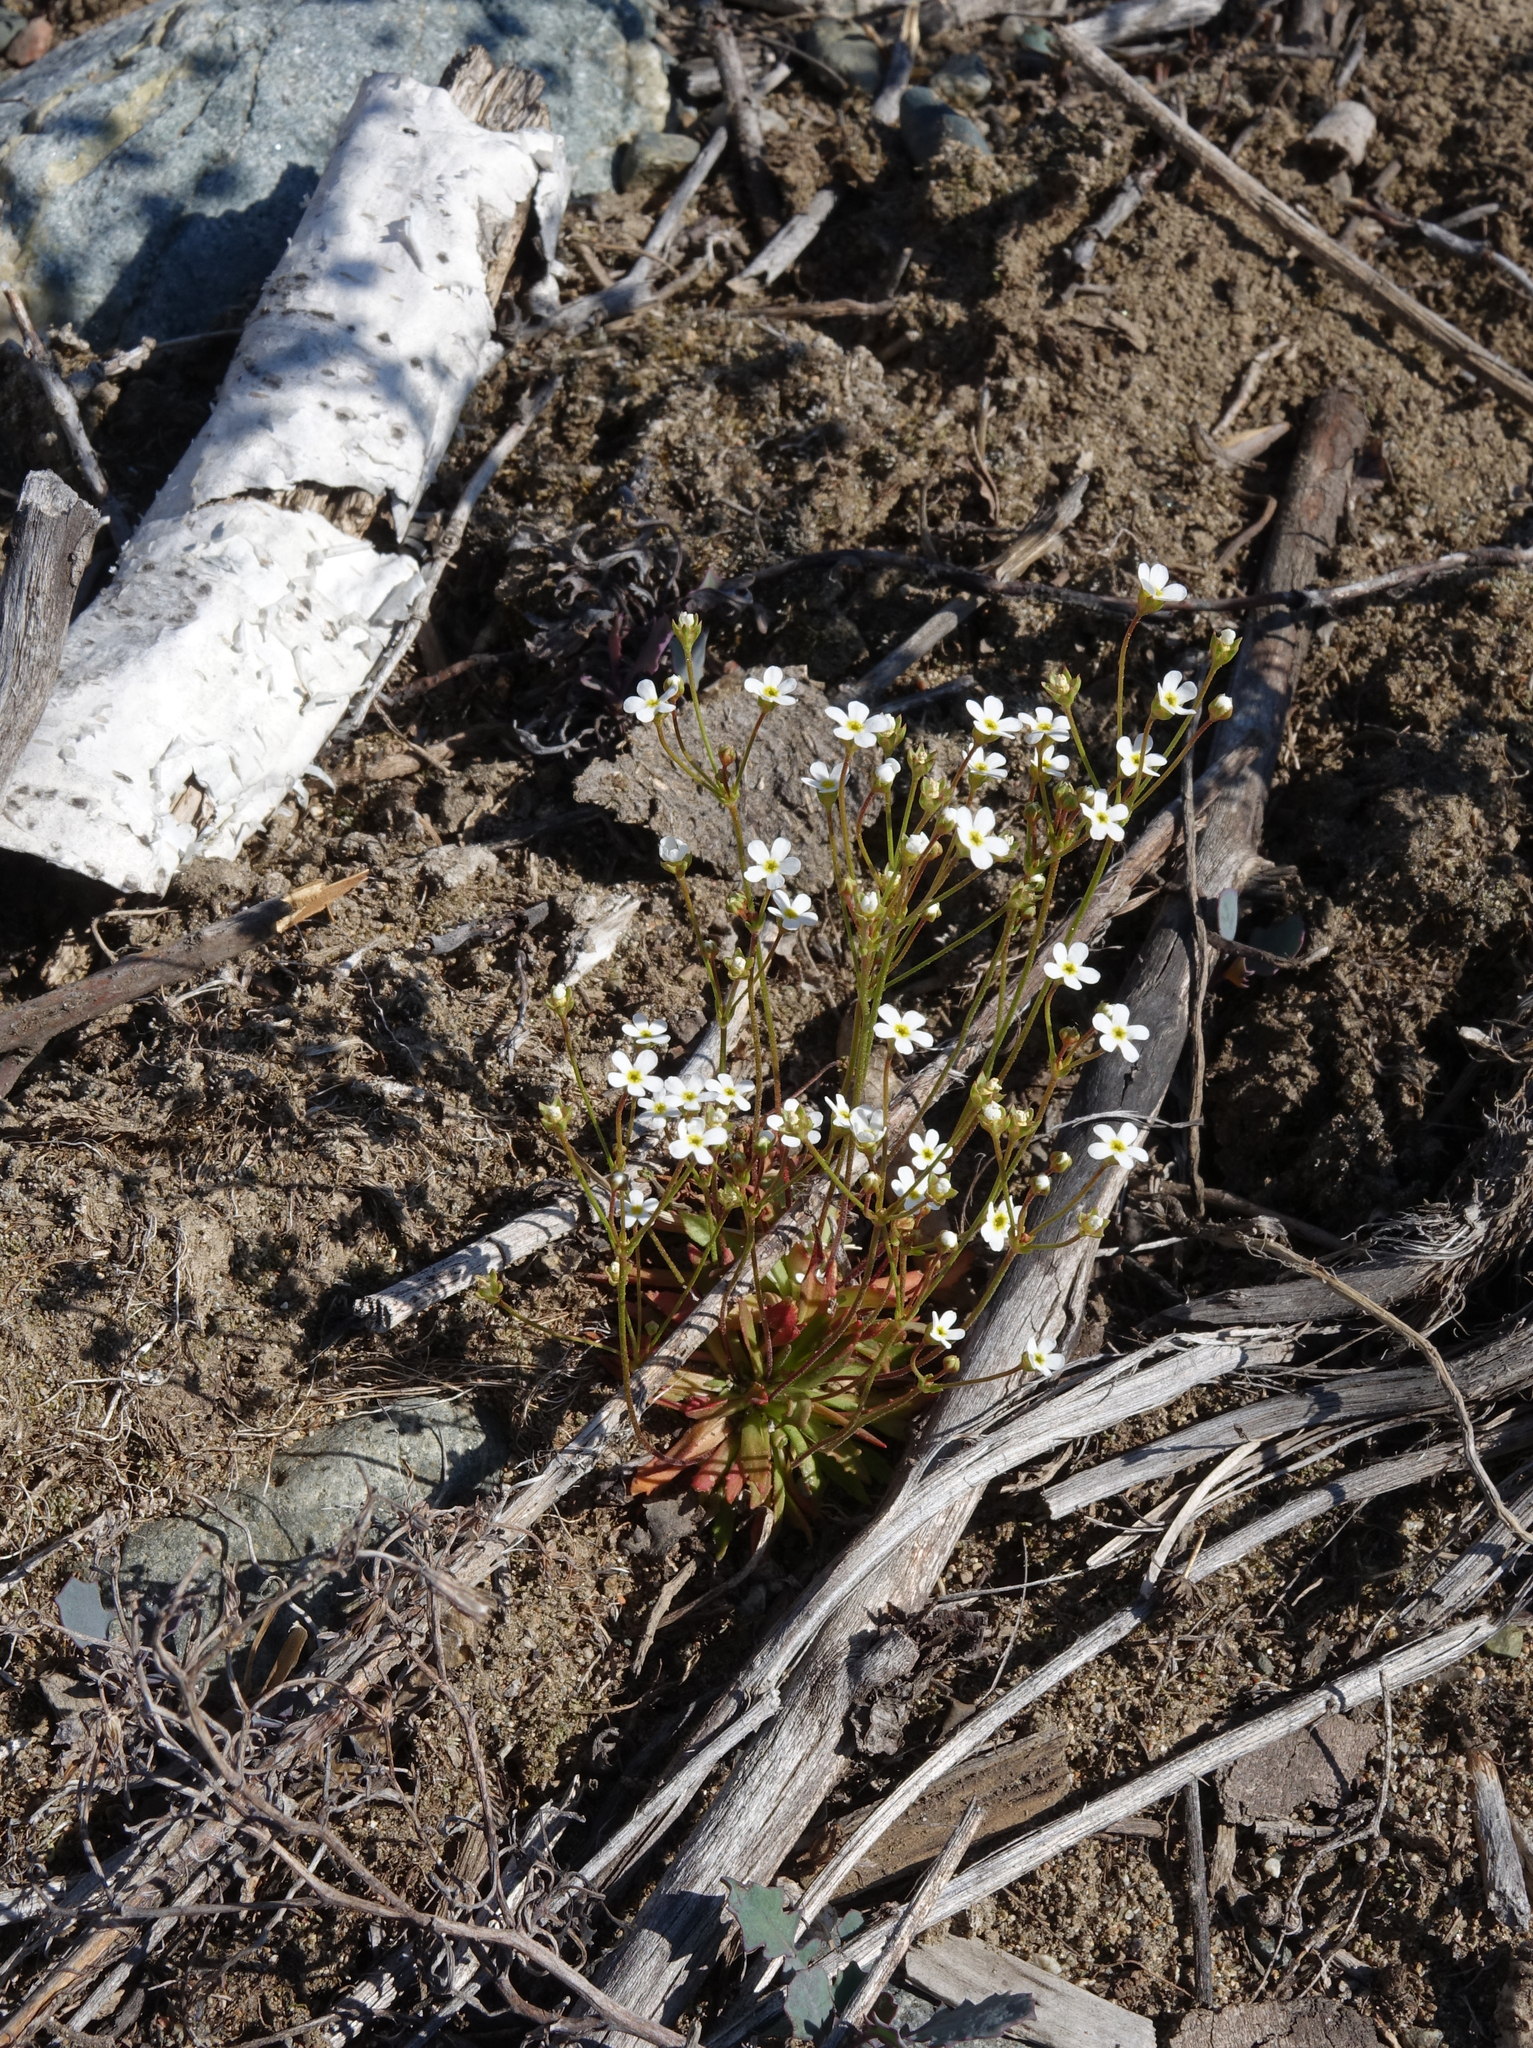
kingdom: Plantae
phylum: Tracheophyta
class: Magnoliopsida
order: Ericales
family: Primulaceae
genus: Androsace
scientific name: Androsace lactiflora
